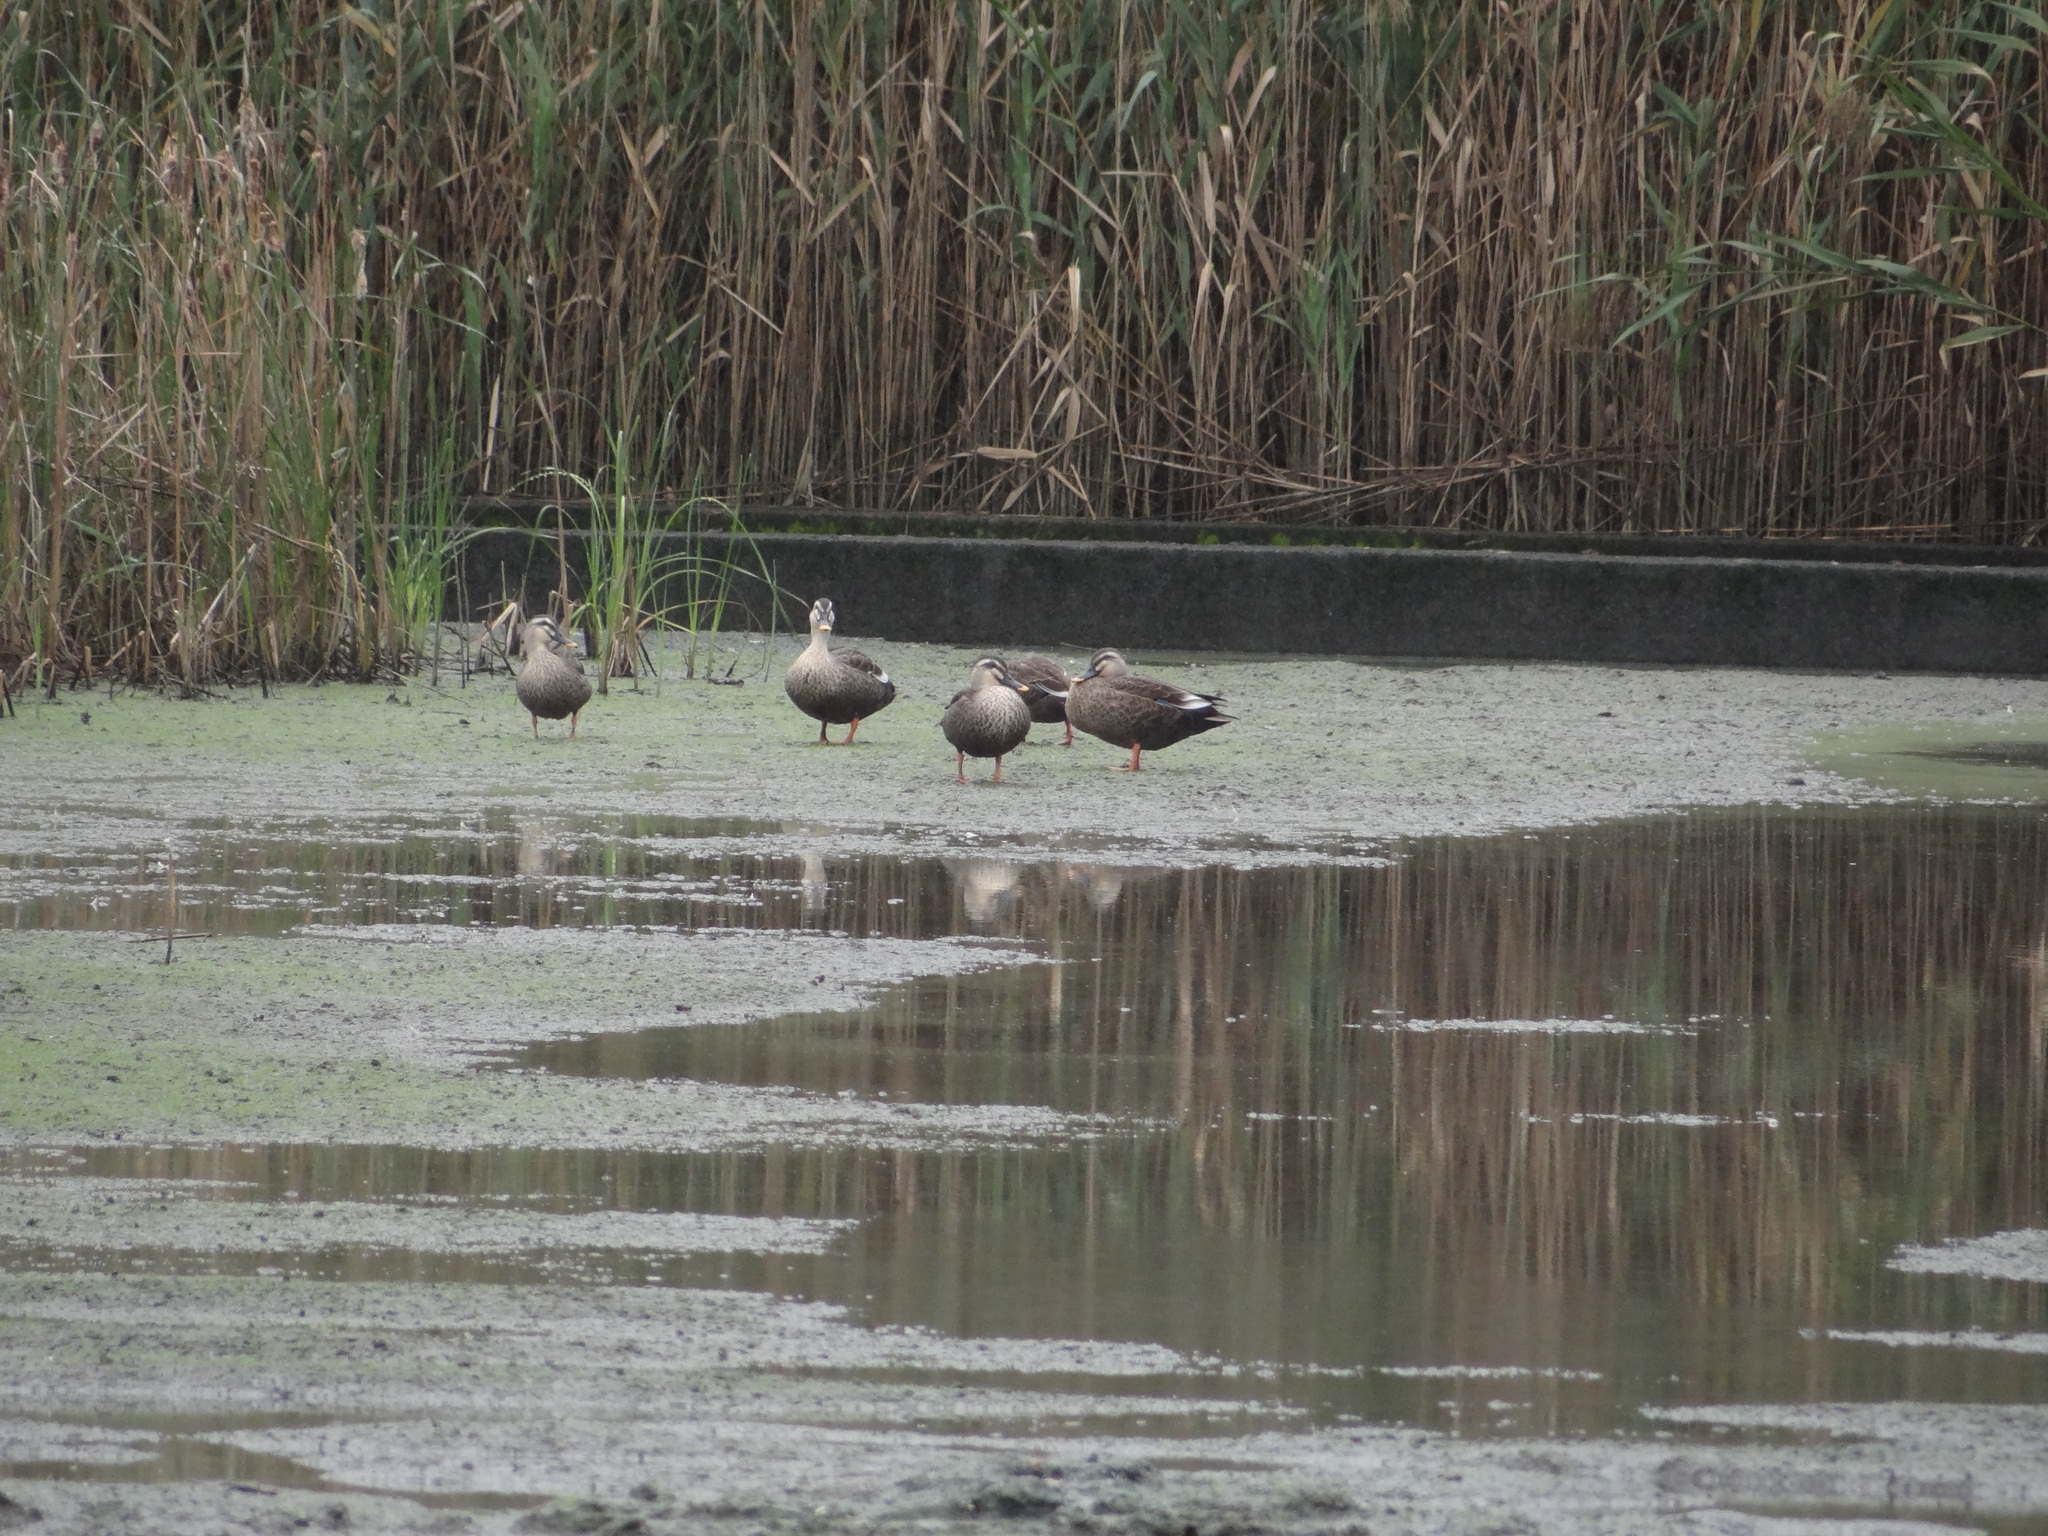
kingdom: Animalia
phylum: Chordata
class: Aves
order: Anseriformes
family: Anatidae
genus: Anas
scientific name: Anas zonorhyncha
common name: Eastern spot-billed duck
